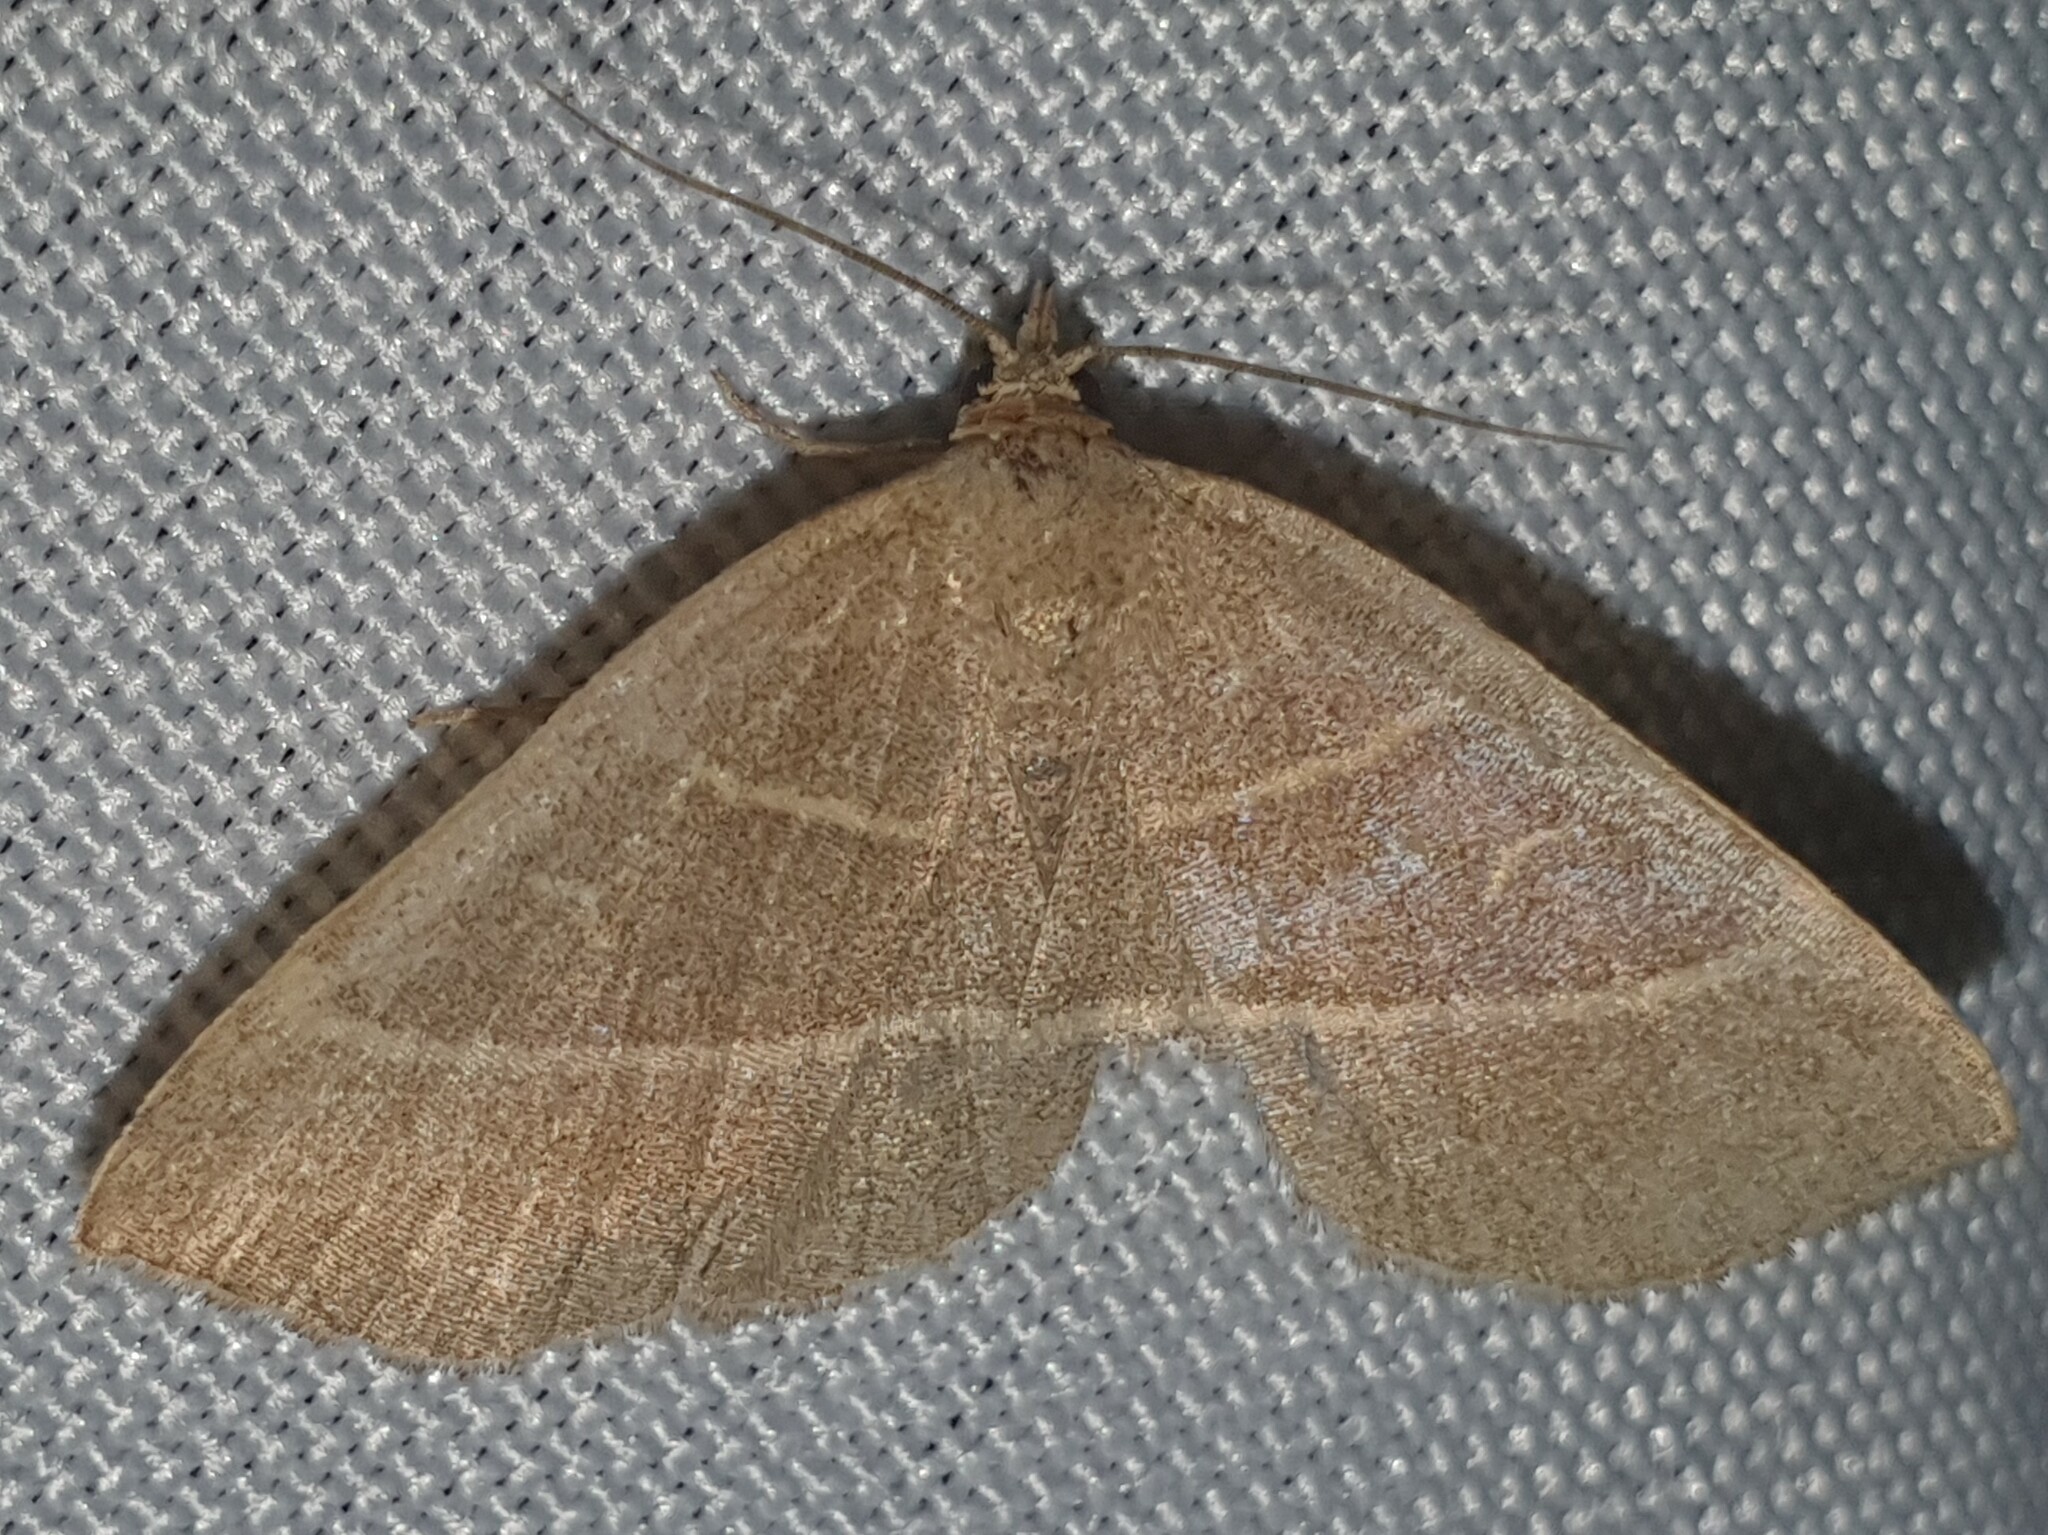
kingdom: Animalia
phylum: Arthropoda
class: Insecta
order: Lepidoptera
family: Erebidae
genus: Trisateles
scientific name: Trisateles emortualis
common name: Olive crescent
